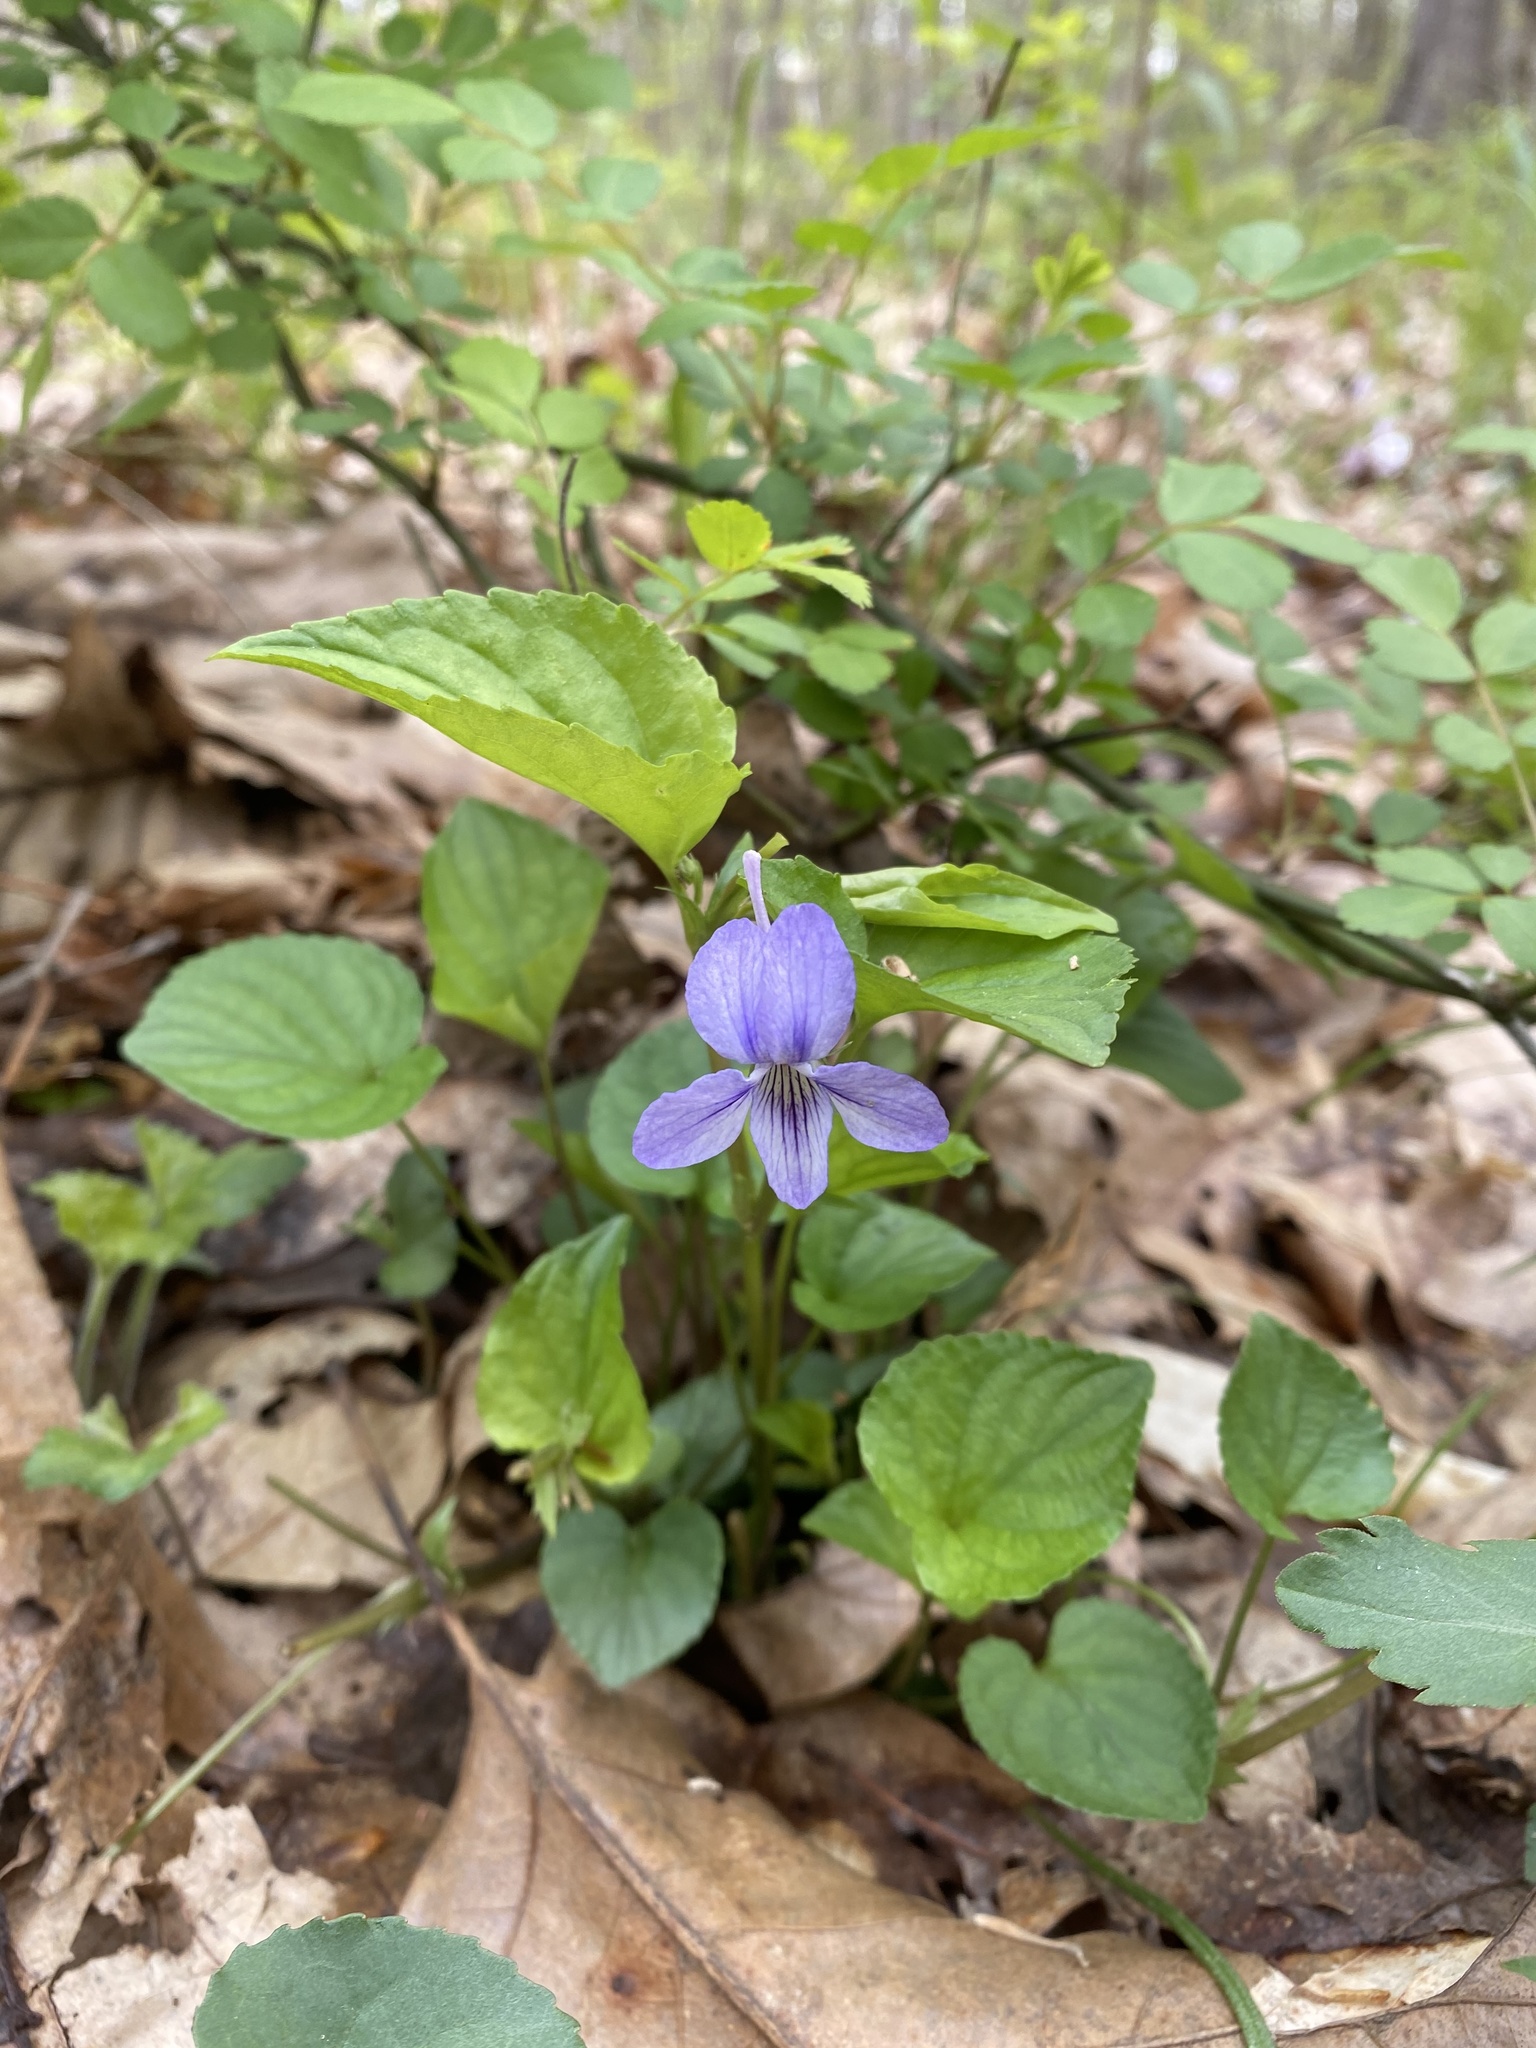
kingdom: Plantae
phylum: Tracheophyta
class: Magnoliopsida
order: Malpighiales
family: Violaceae
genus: Viola
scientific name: Viola rostrata
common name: Long-spur violet
